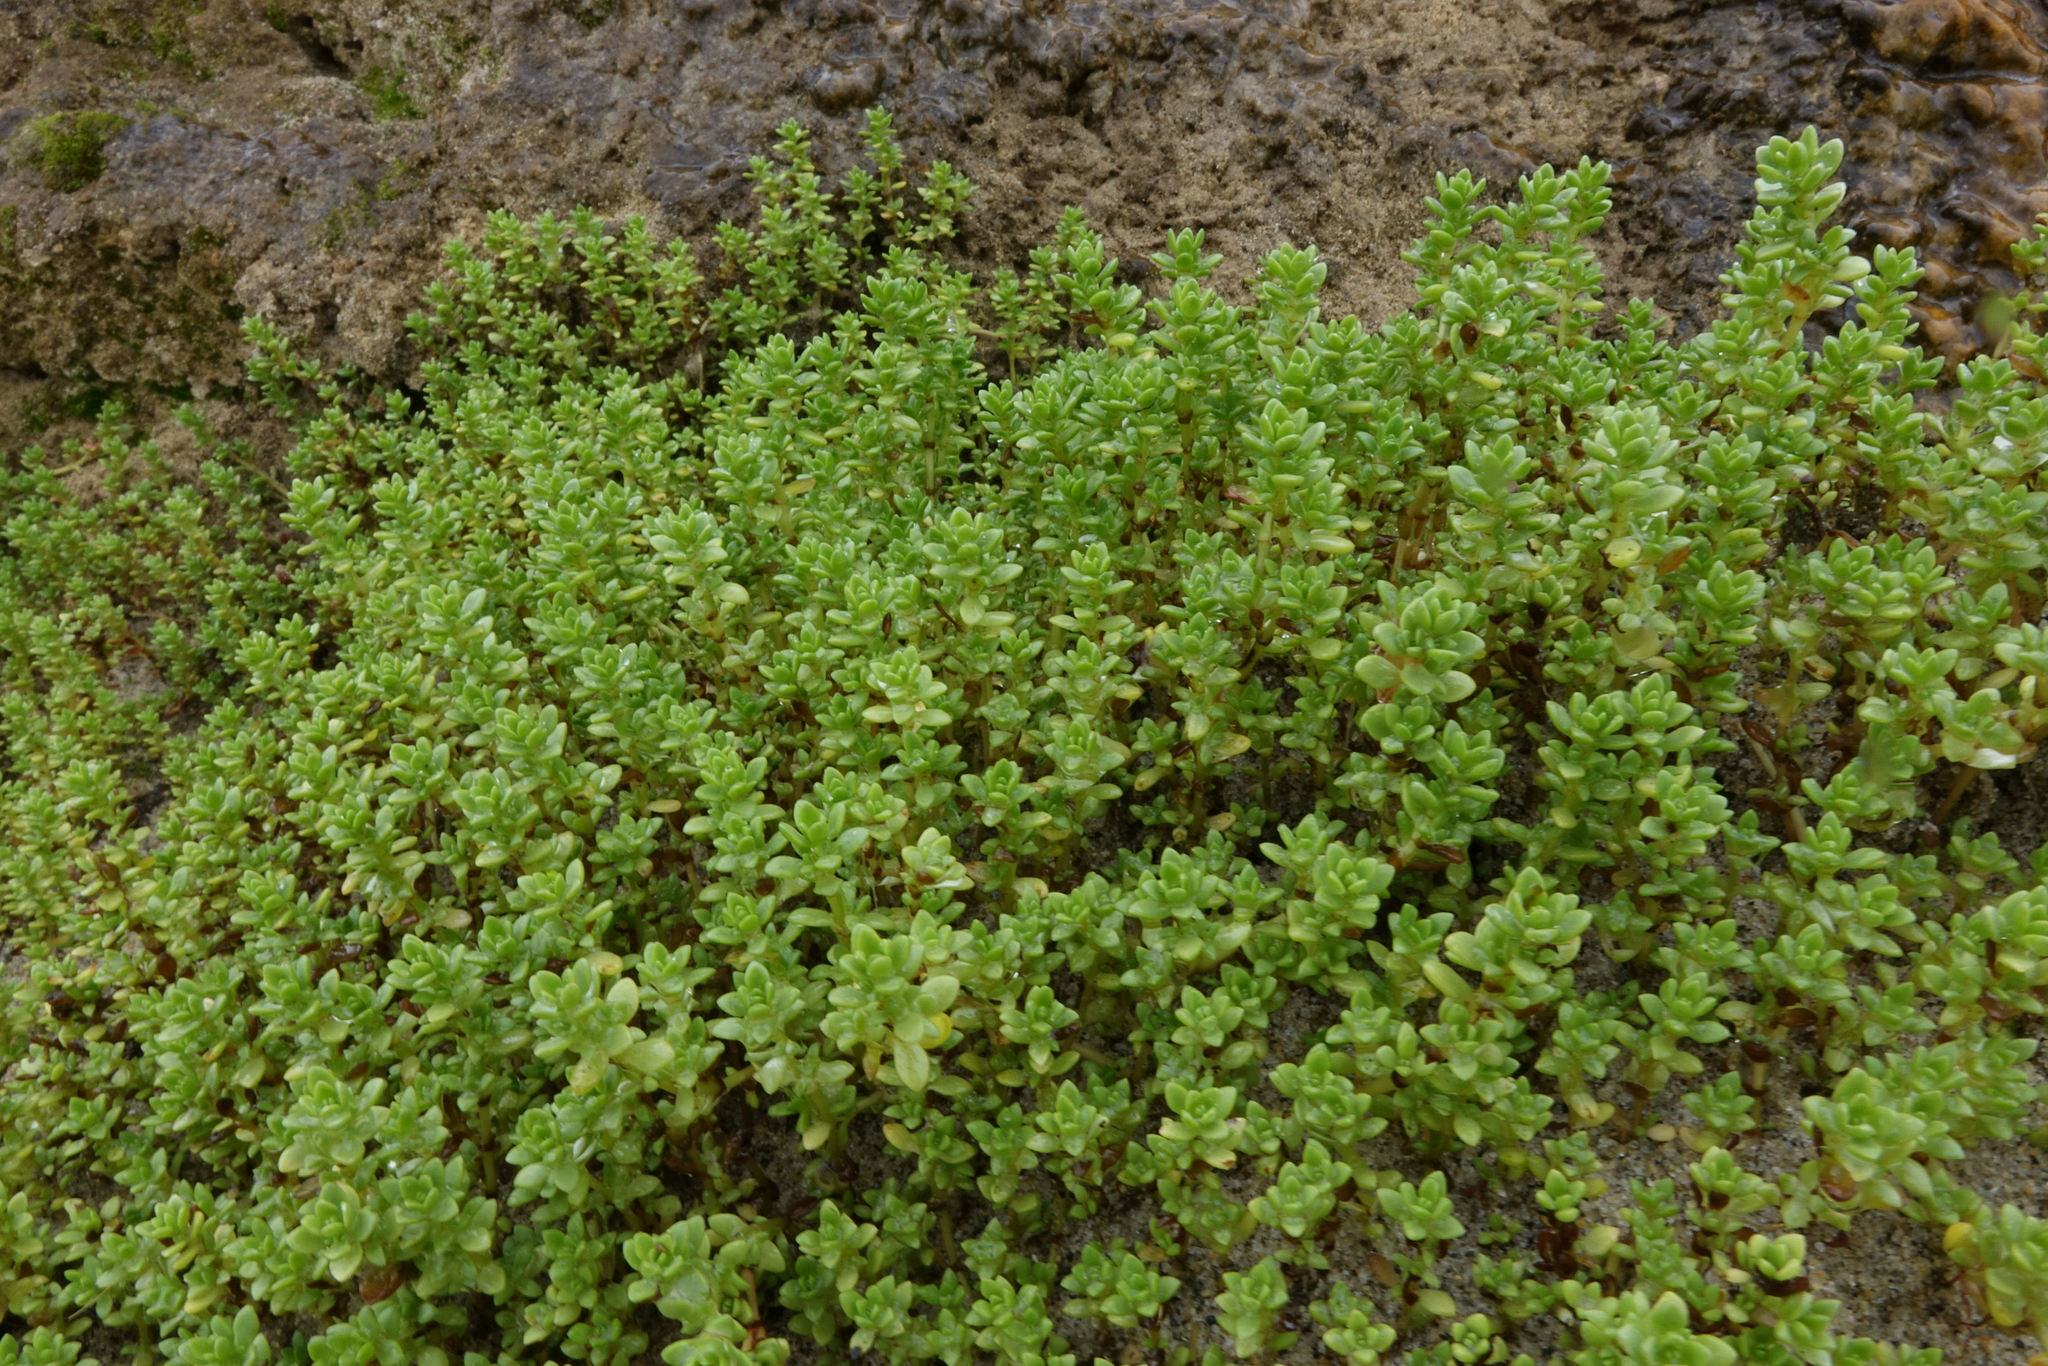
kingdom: Plantae
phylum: Tracheophyta
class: Magnoliopsida
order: Saxifragales
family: Crassulaceae
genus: Crassula
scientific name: Crassula moschata
